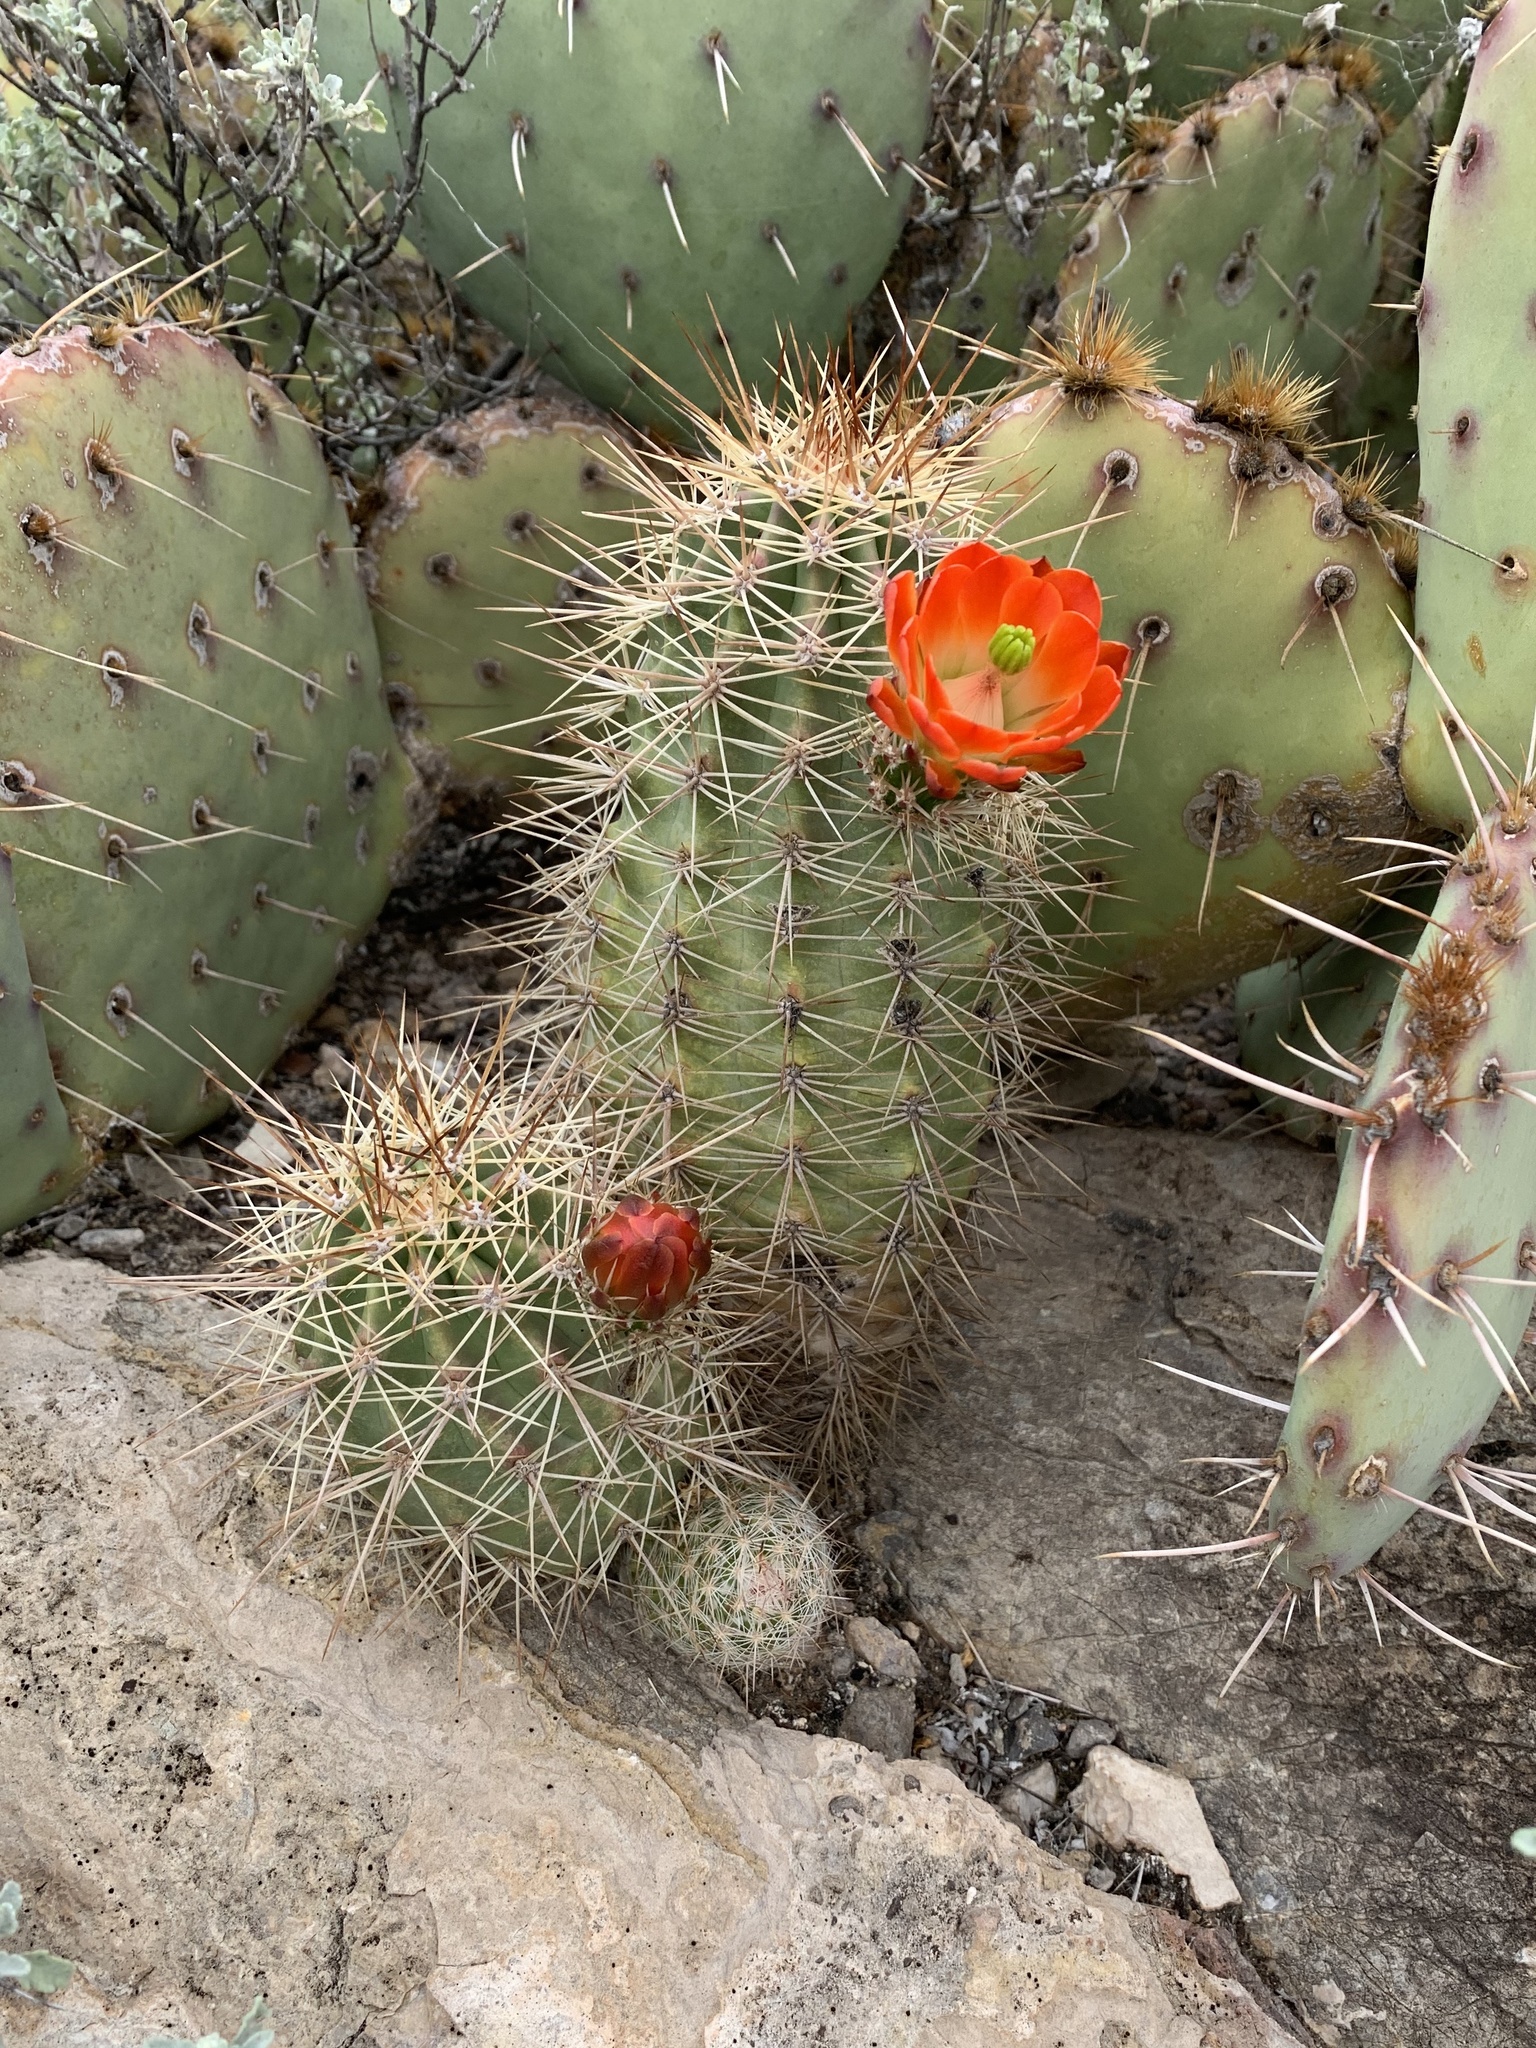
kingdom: Plantae
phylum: Tracheophyta
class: Magnoliopsida
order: Caryophyllales
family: Cactaceae
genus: Echinocereus
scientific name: Echinocereus coccineus
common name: Scarlet hedgehog cactus
